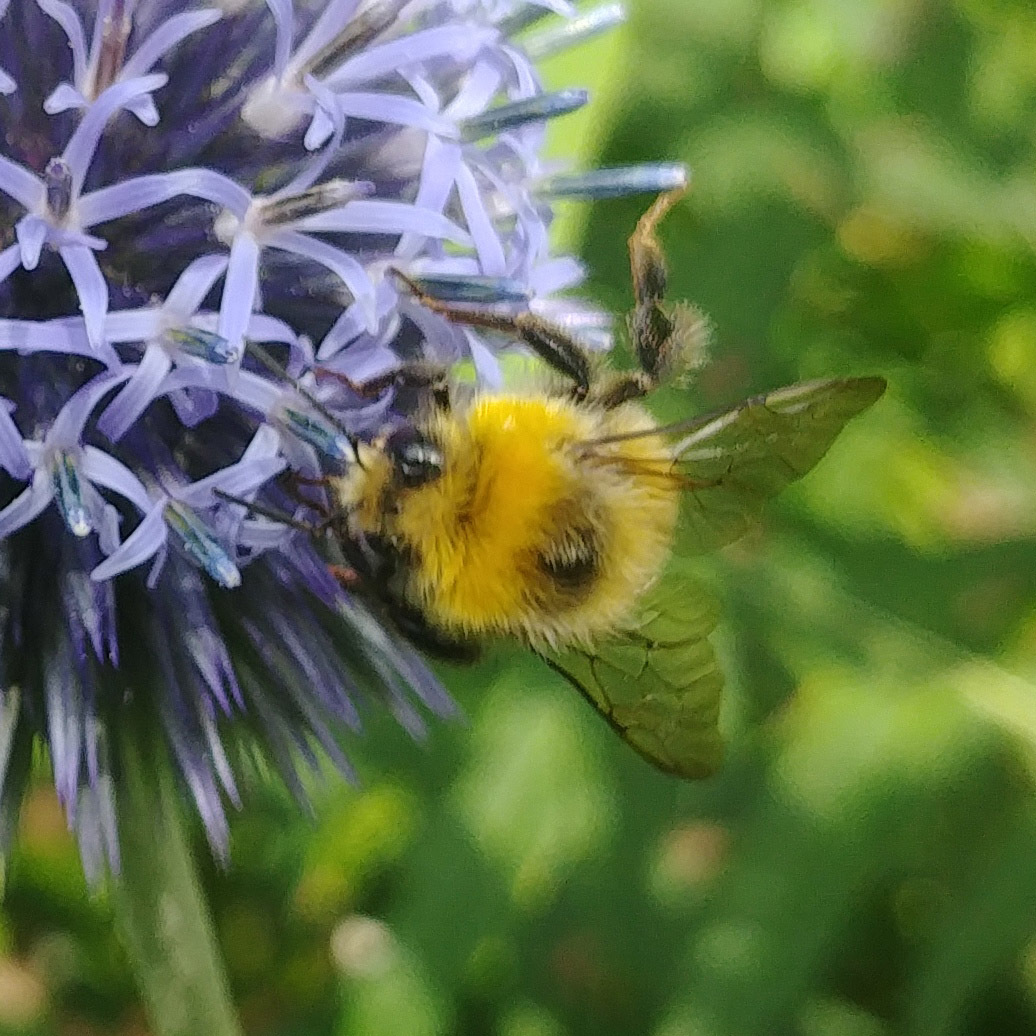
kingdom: Animalia
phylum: Arthropoda
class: Insecta
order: Hymenoptera
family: Apidae
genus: Bombus
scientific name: Bombus lucorum
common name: White-tailed bumblebee
